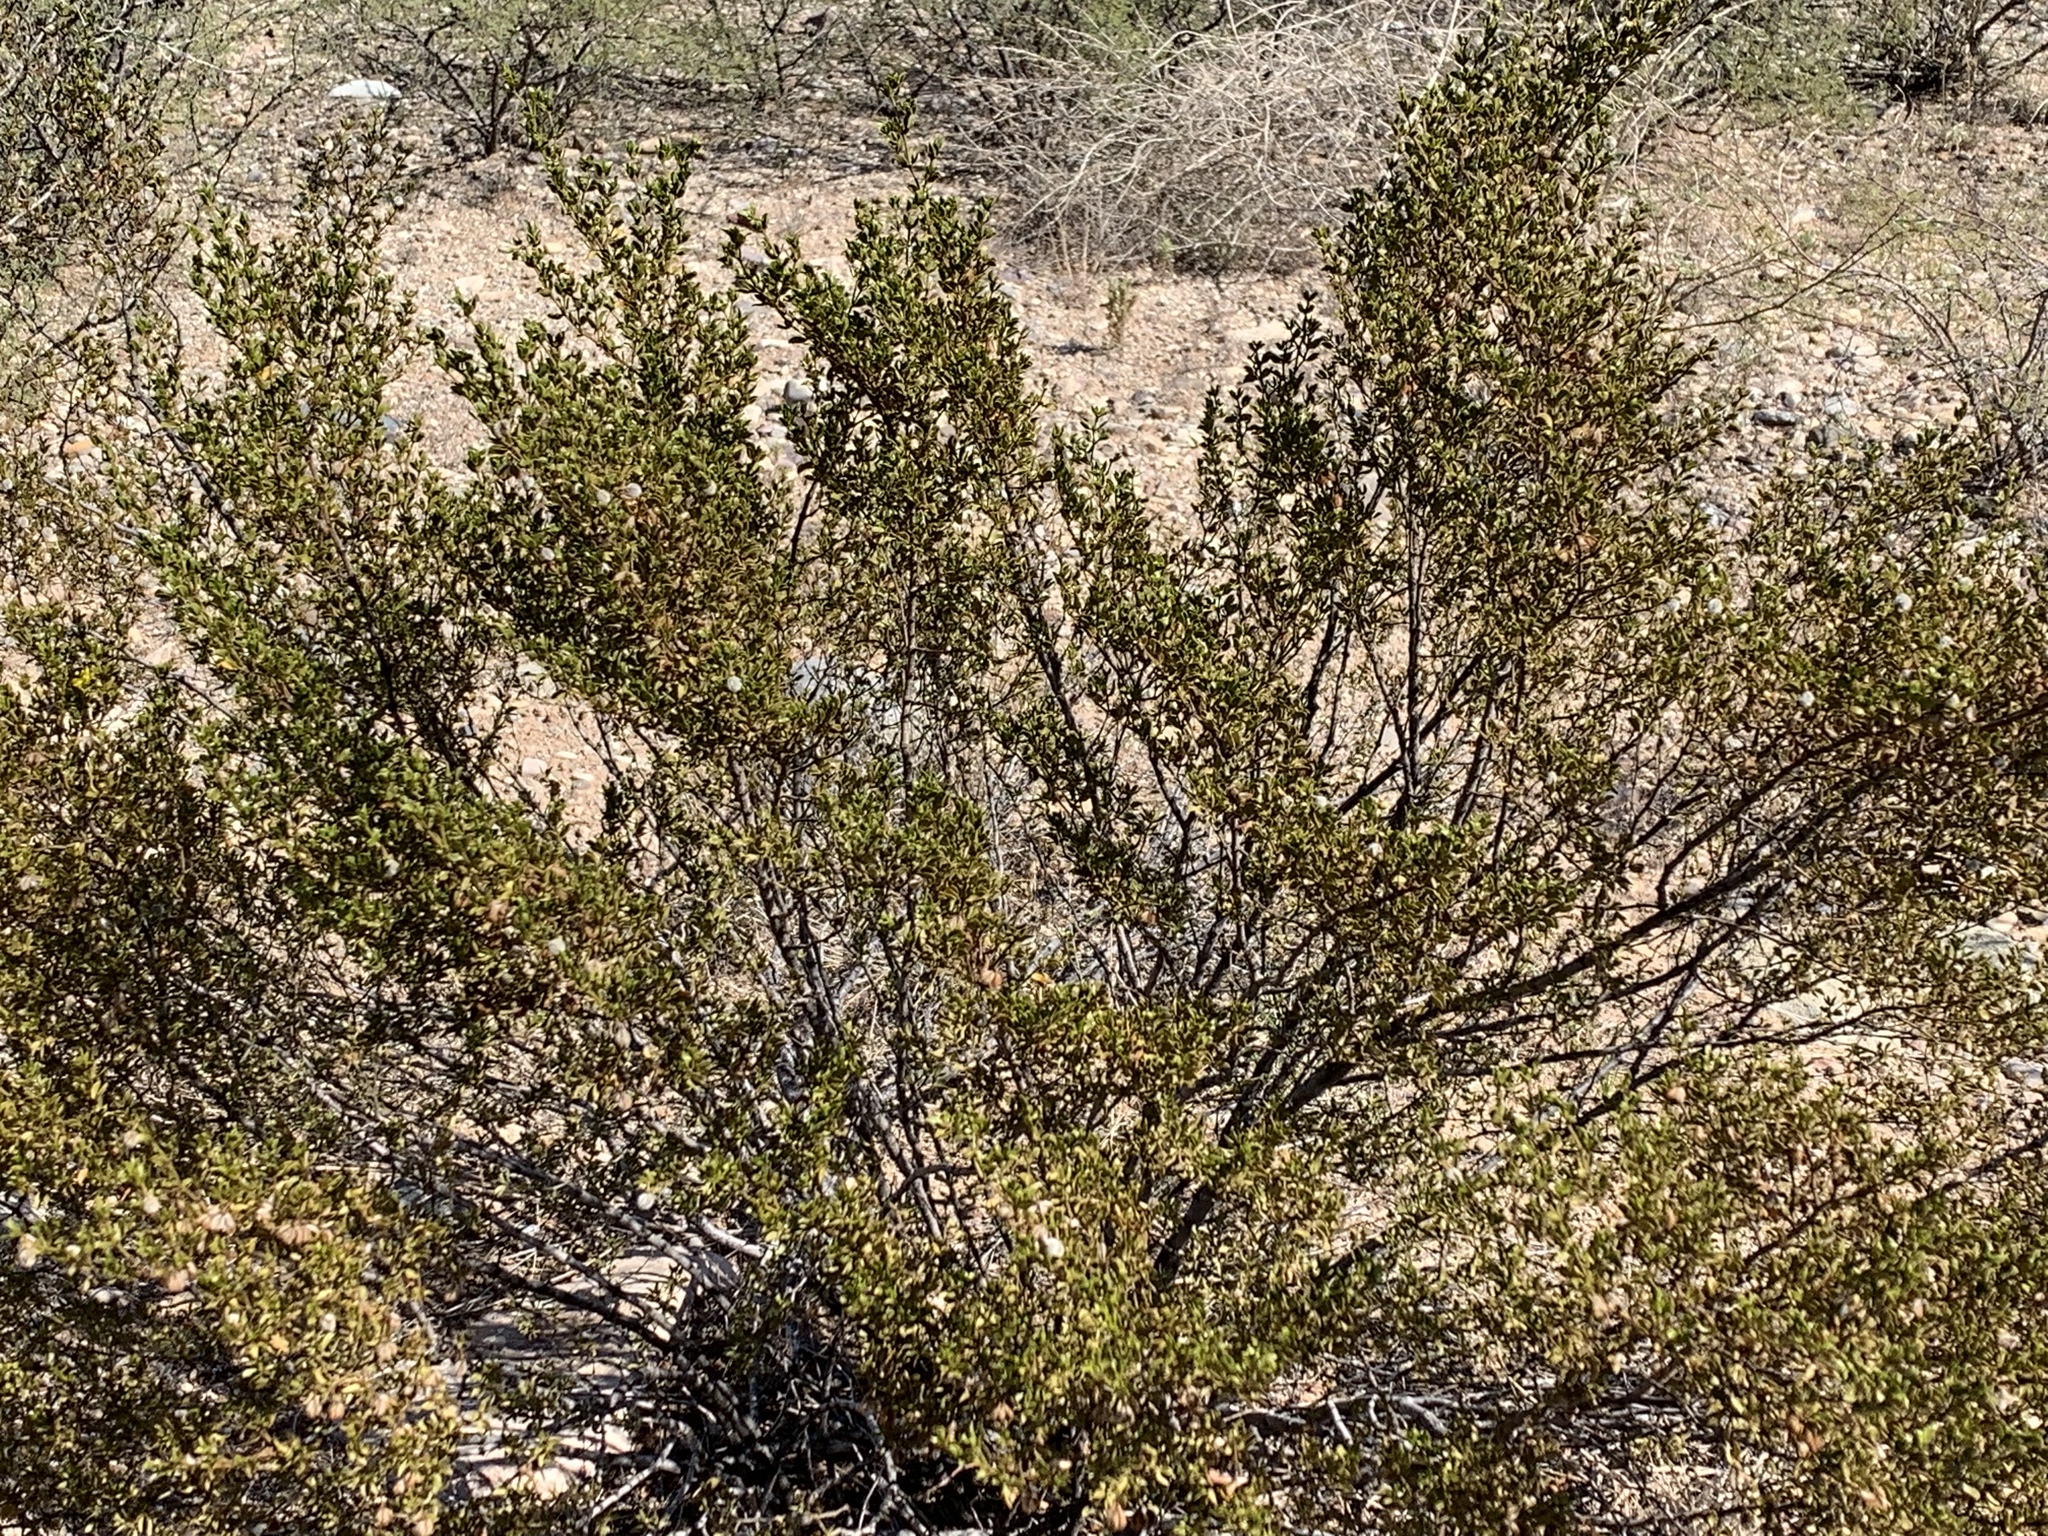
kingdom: Plantae
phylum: Tracheophyta
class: Magnoliopsida
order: Zygophyllales
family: Zygophyllaceae
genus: Larrea
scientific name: Larrea tridentata
